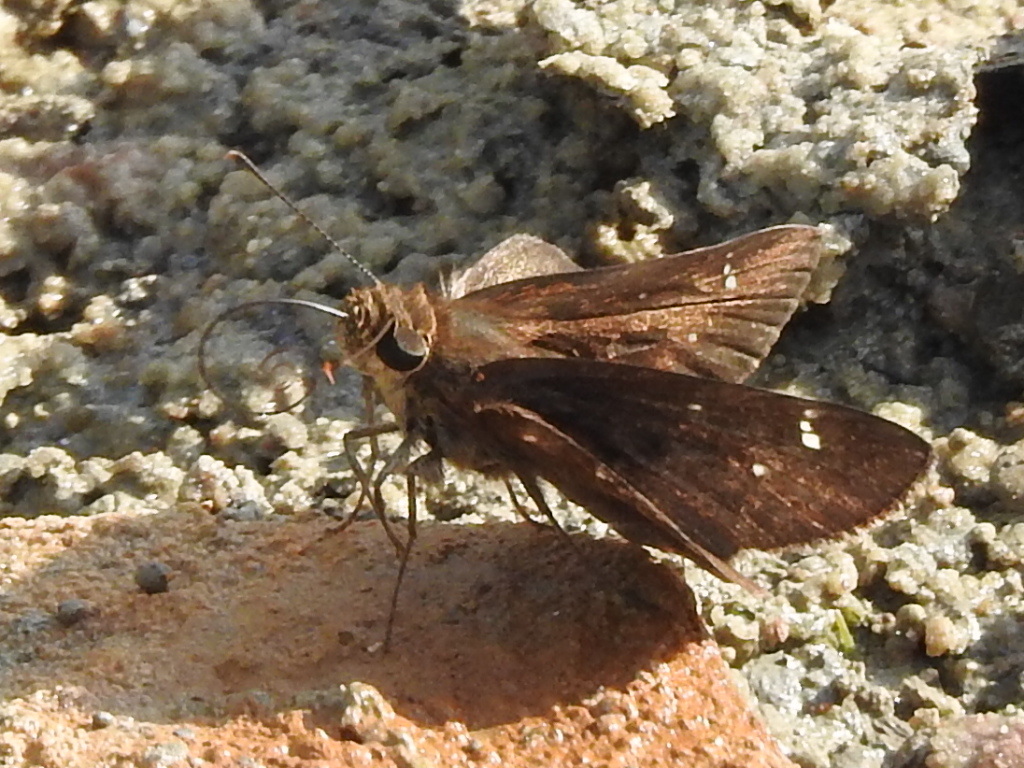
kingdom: Animalia
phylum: Arthropoda
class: Insecta
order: Lepidoptera
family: Hesperiidae
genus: Lerema
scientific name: Lerema accius
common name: Clouded skipper
